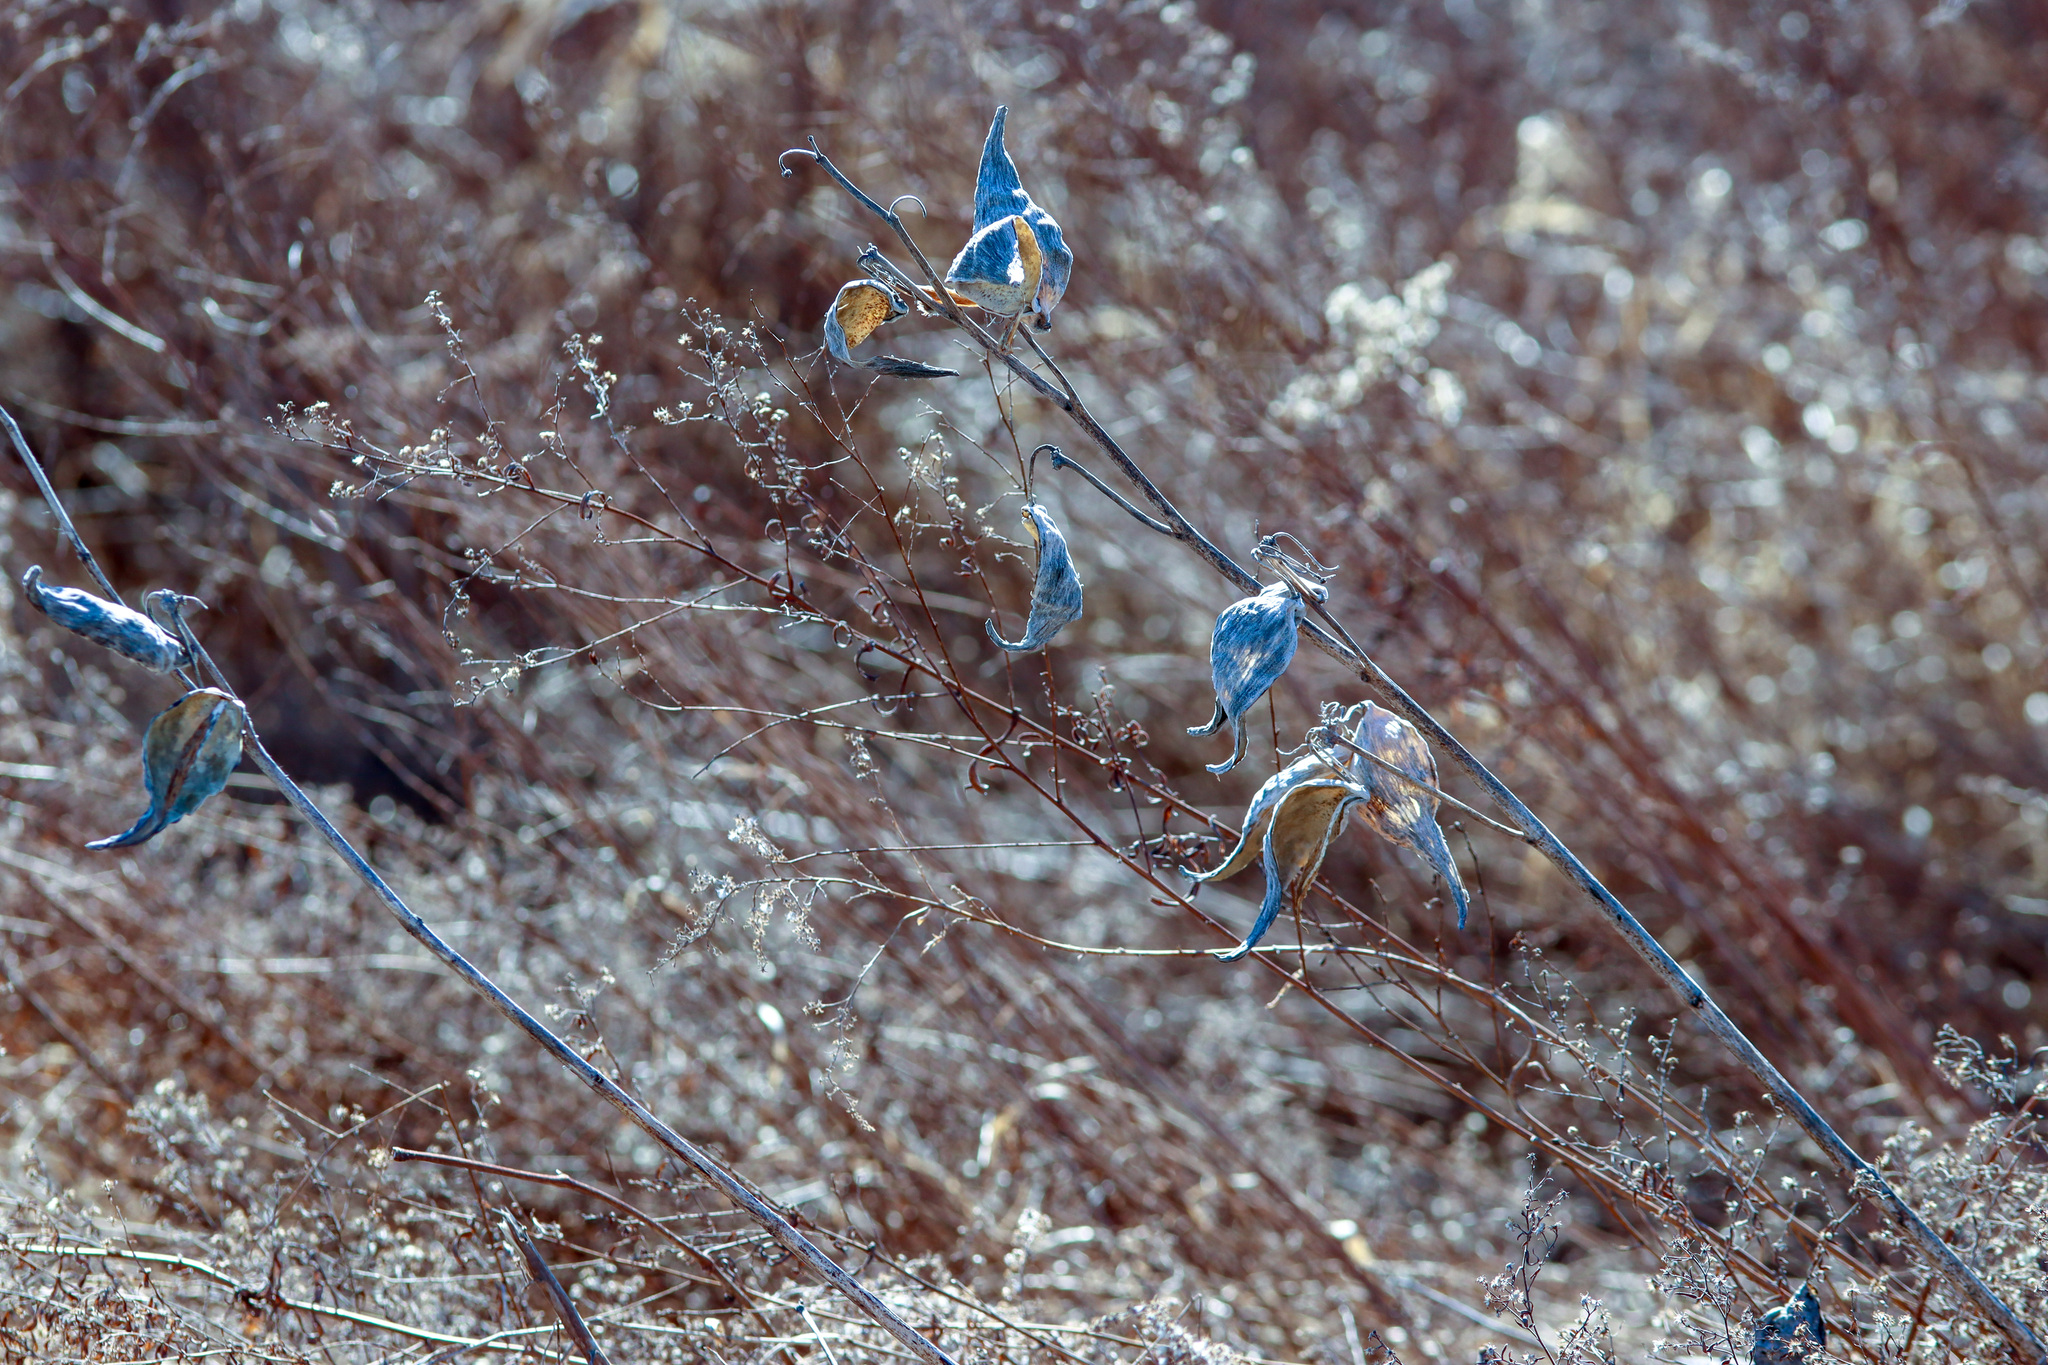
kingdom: Plantae
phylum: Tracheophyta
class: Magnoliopsida
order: Gentianales
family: Apocynaceae
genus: Asclepias
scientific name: Asclepias syriaca
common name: Common milkweed
